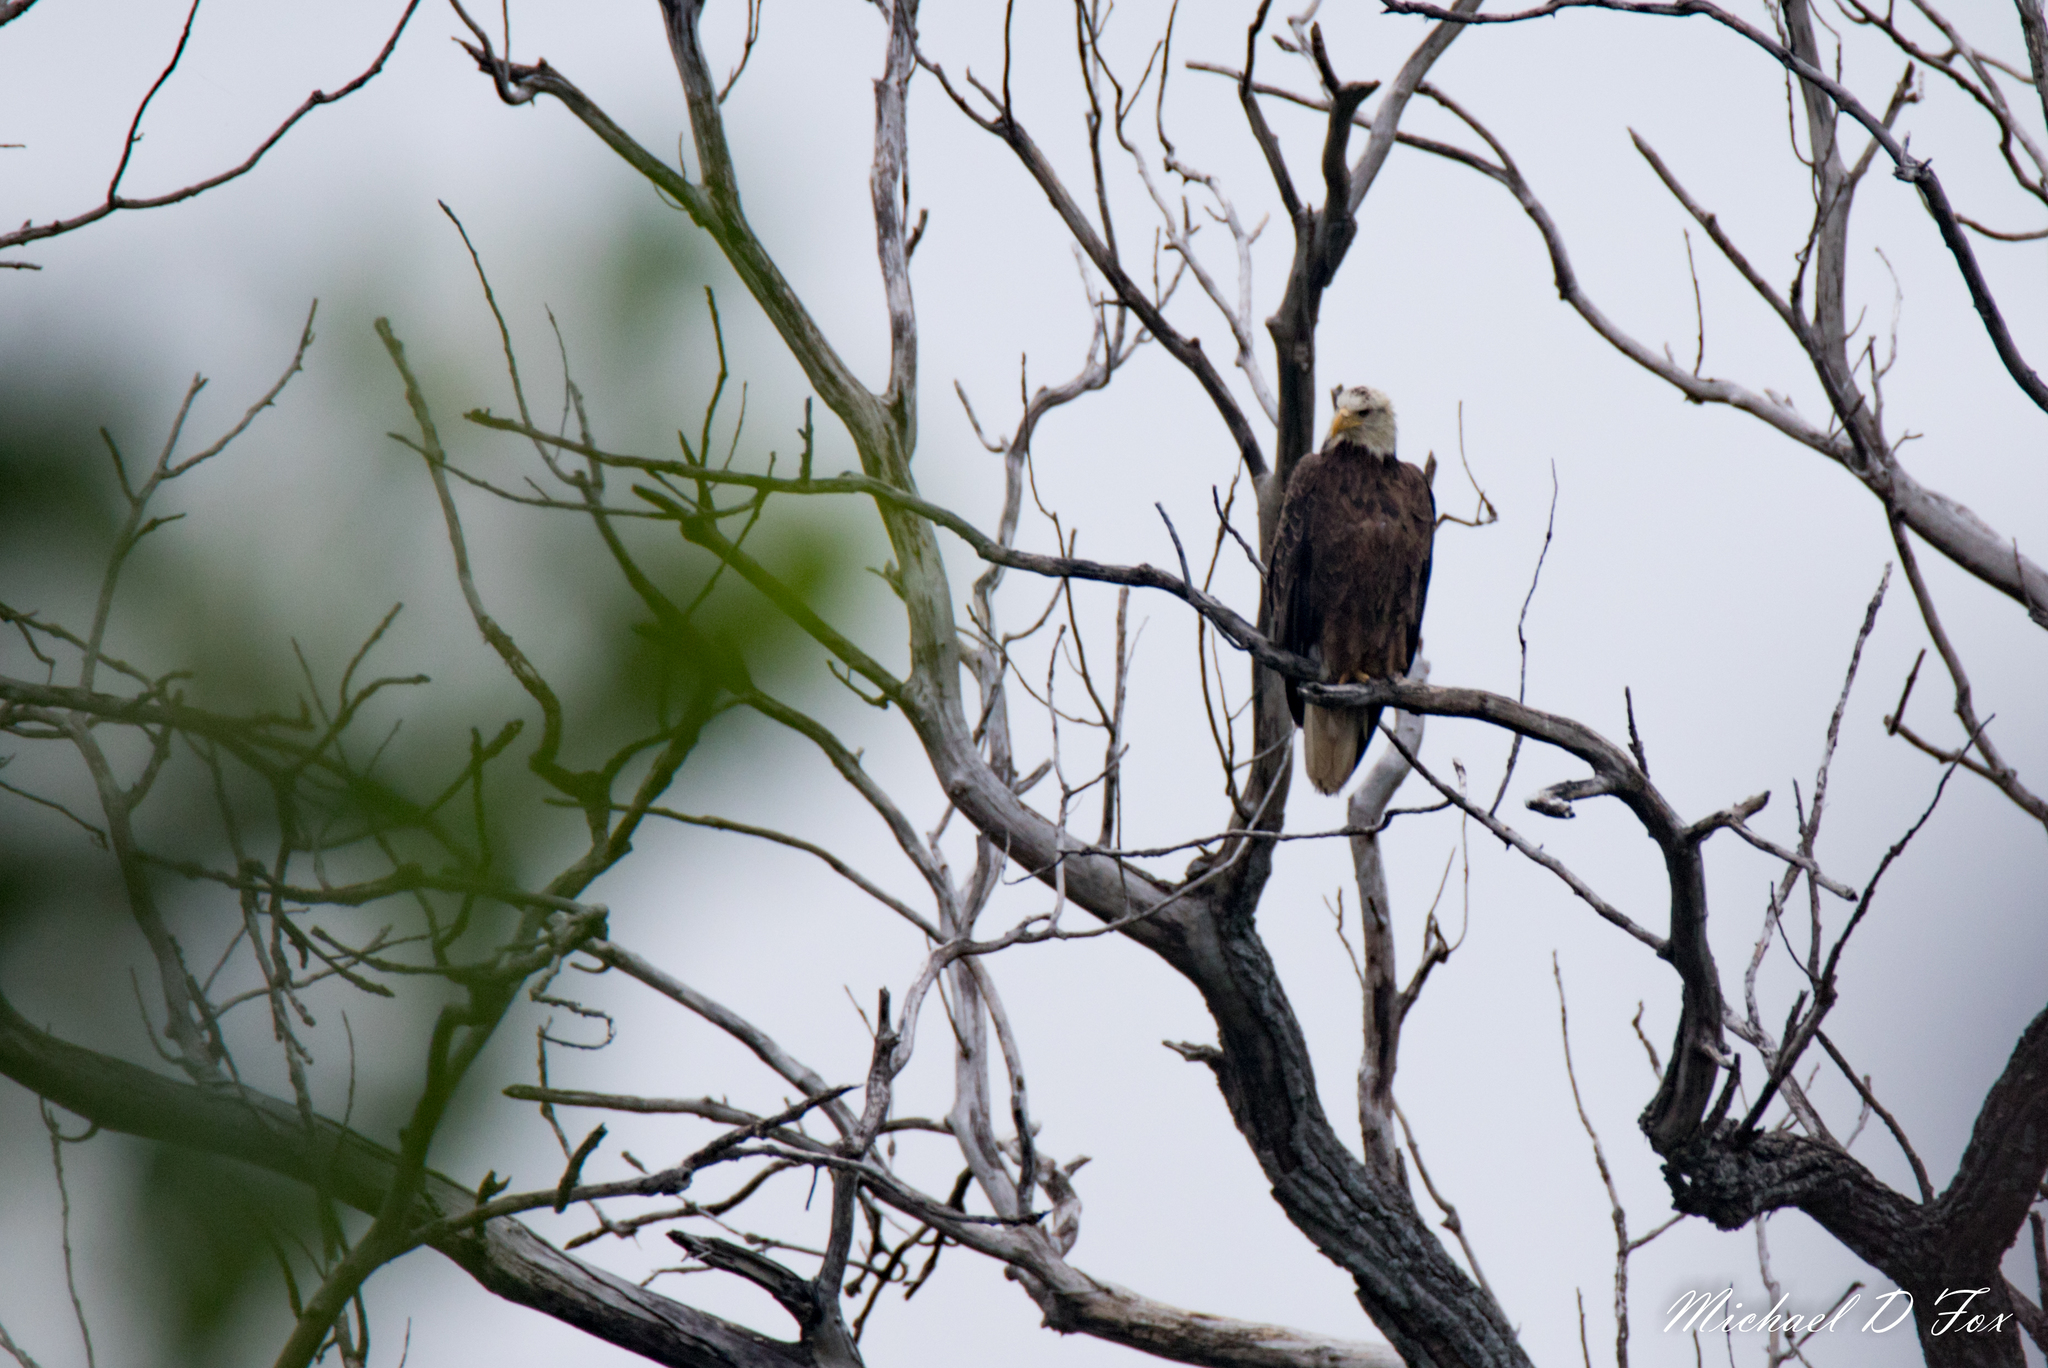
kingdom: Animalia
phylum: Chordata
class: Aves
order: Accipitriformes
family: Accipitridae
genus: Haliaeetus
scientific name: Haliaeetus leucocephalus
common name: Bald eagle
